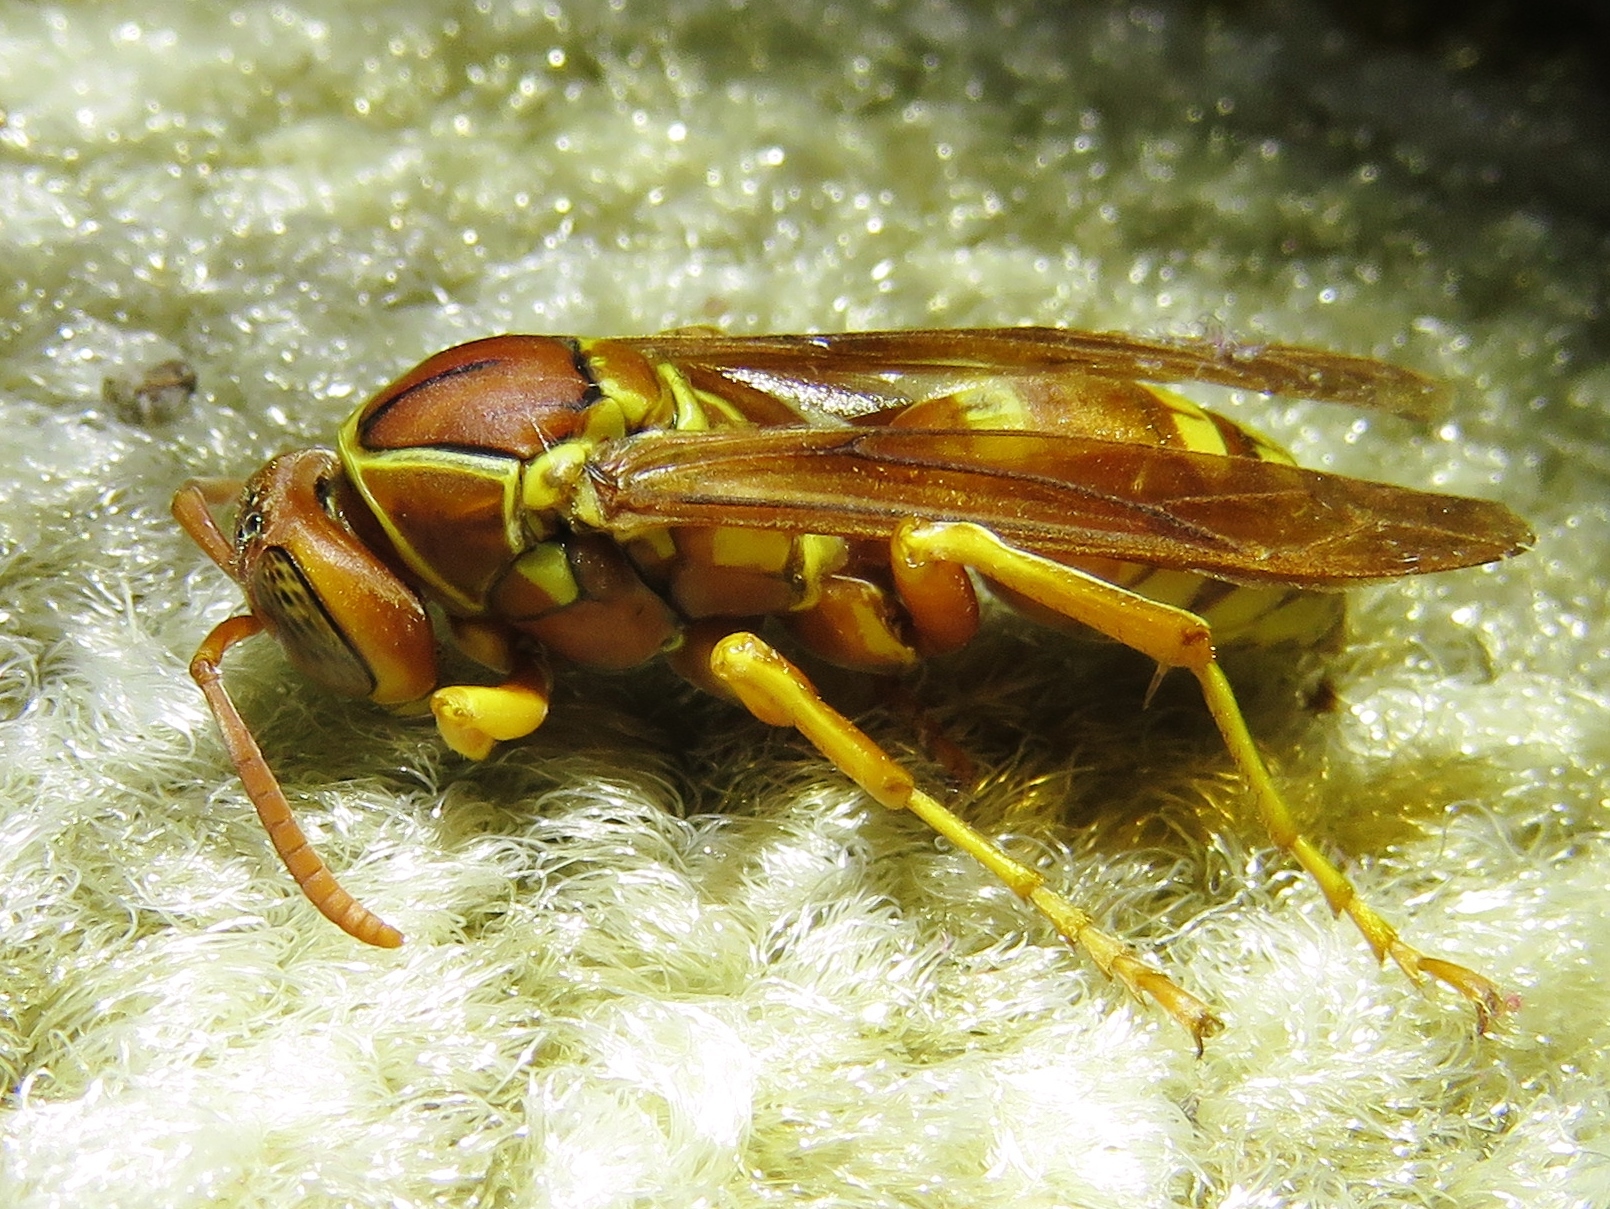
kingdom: Animalia
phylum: Arthropoda
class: Insecta
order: Hymenoptera
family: Eumenidae
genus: Polistes
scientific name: Polistes apachus
